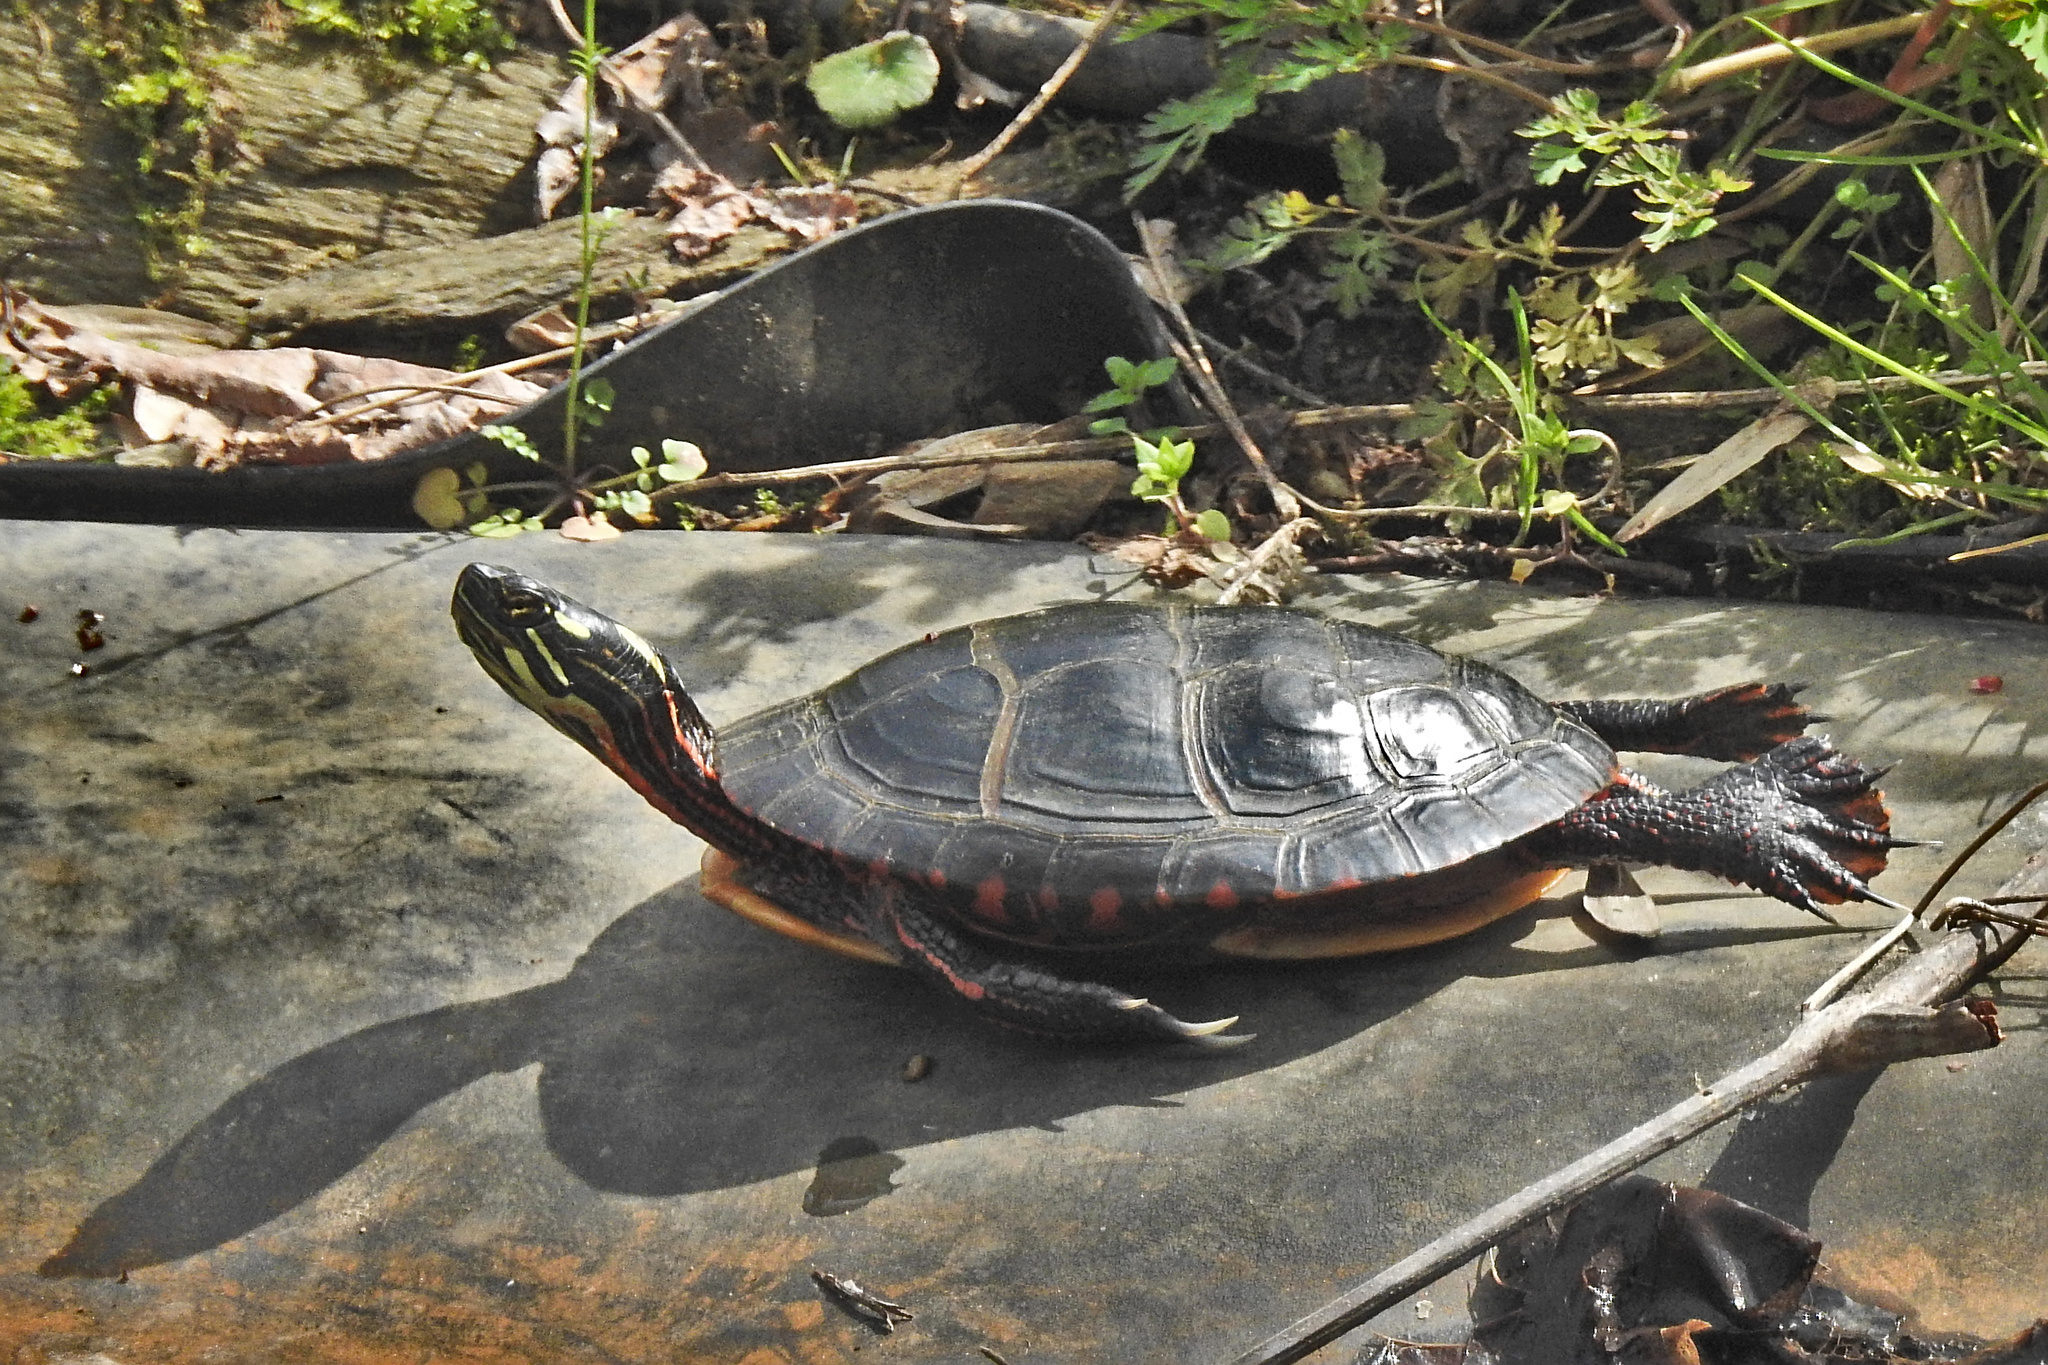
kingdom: Animalia
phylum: Chordata
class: Testudines
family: Emydidae
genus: Chrysemys
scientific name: Chrysemys picta
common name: Painted turtle
